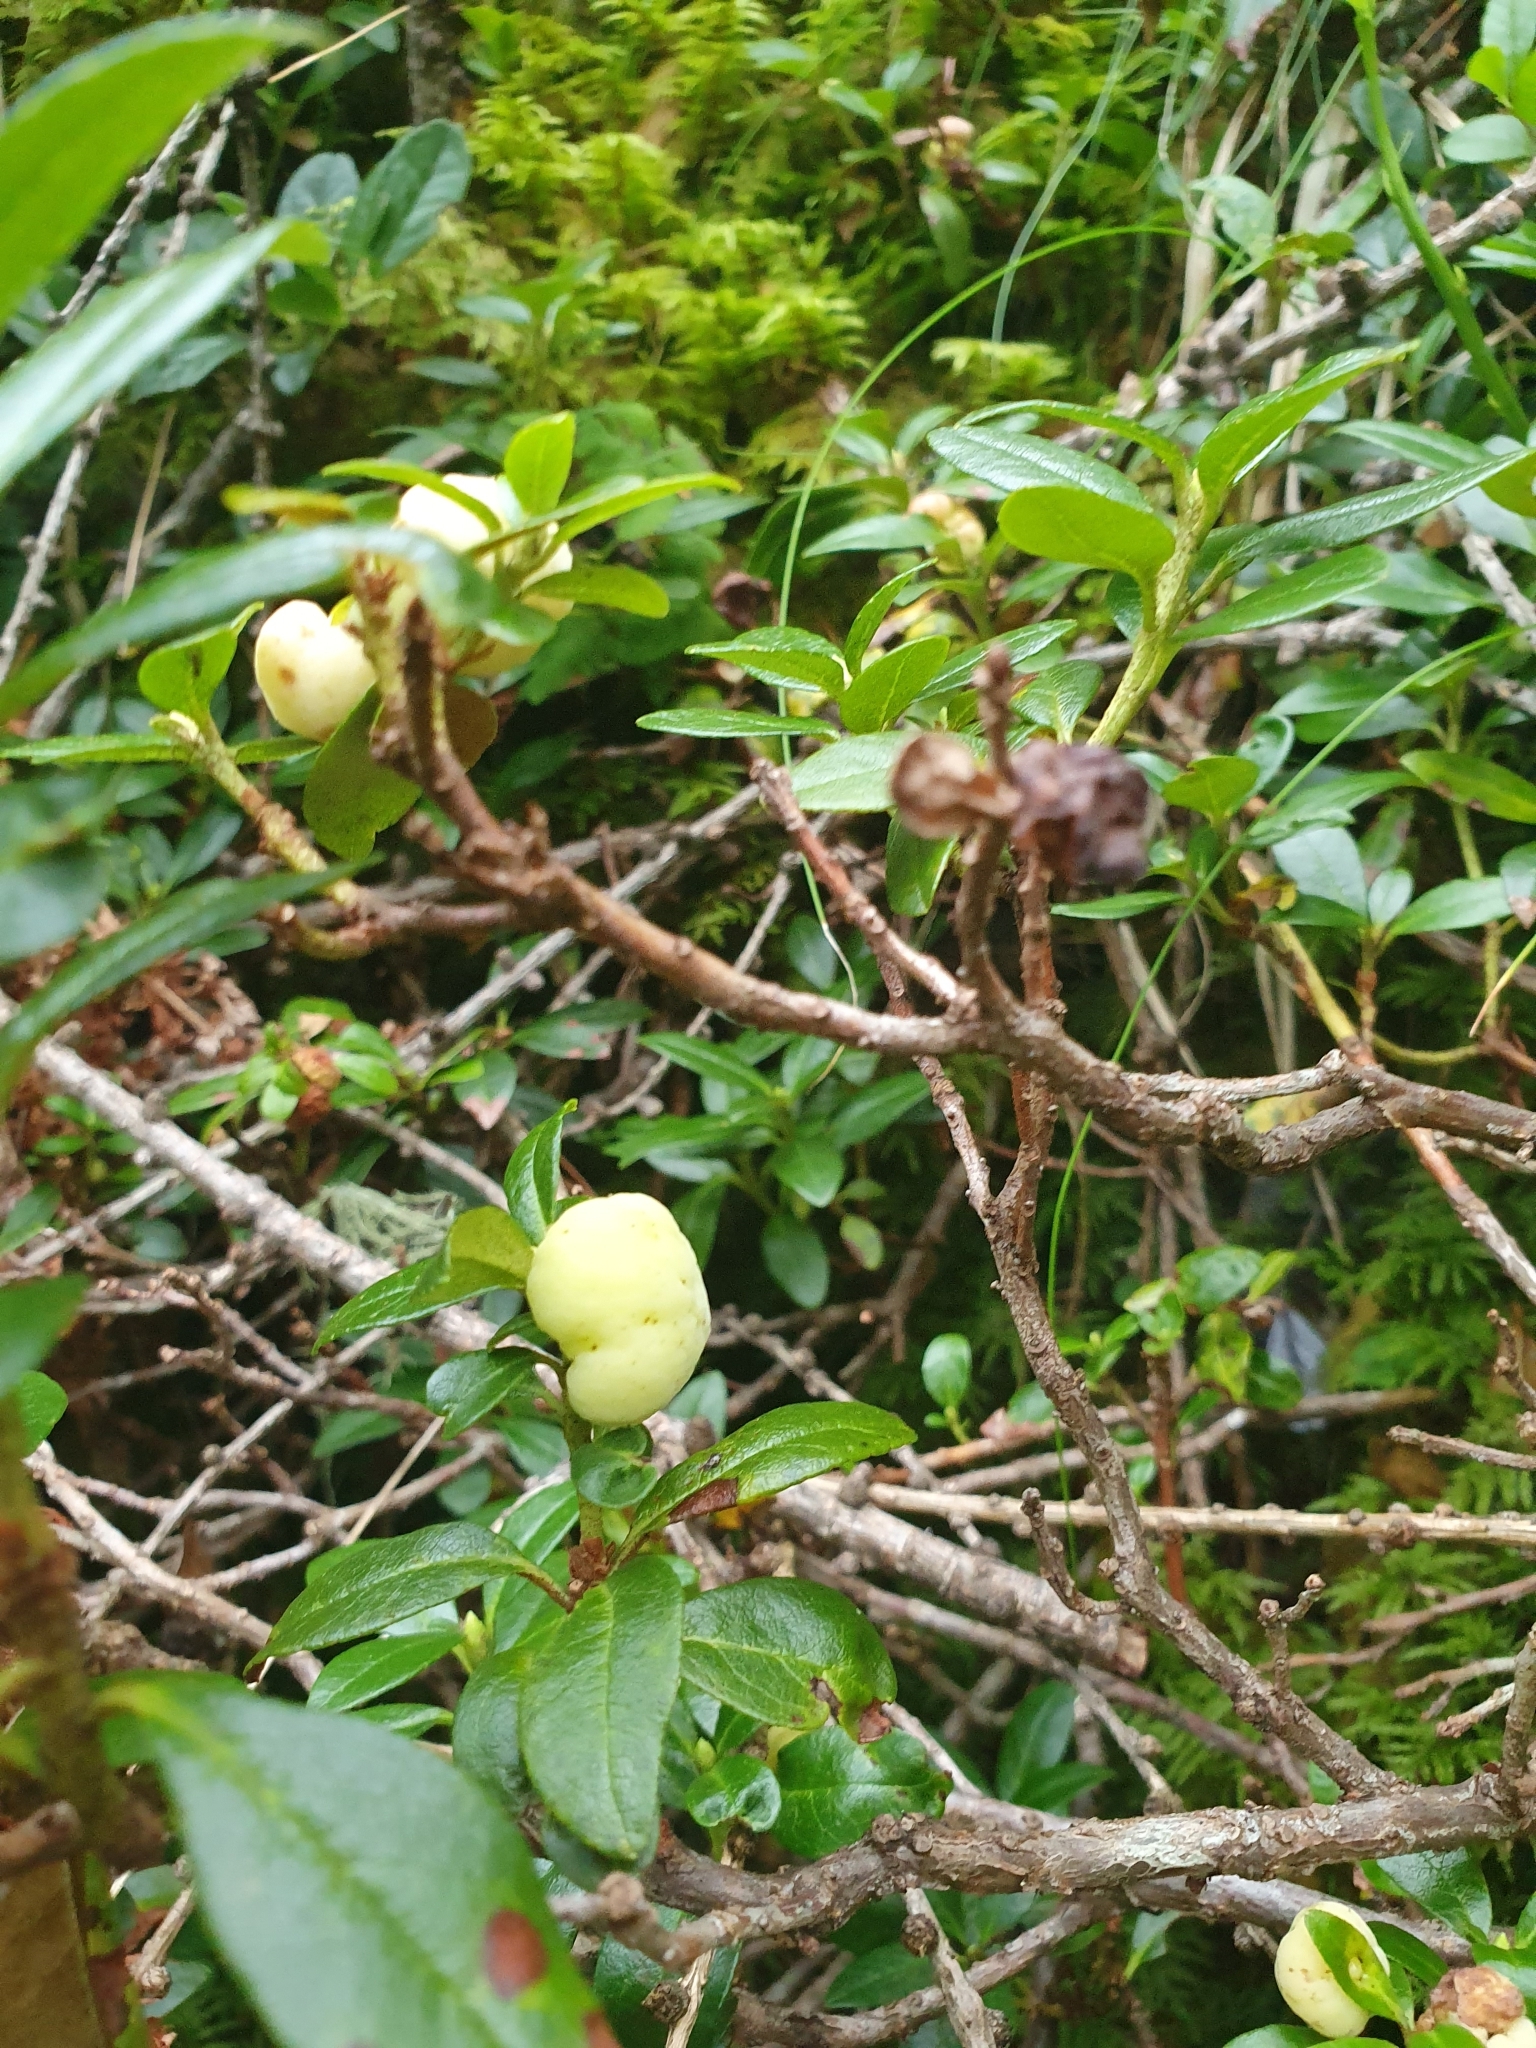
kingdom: Fungi
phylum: Basidiomycota
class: Exobasidiomycetes
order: Exobasidiales
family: Exobasidiaceae
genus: Exobasidium
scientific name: Exobasidium rhododendri
